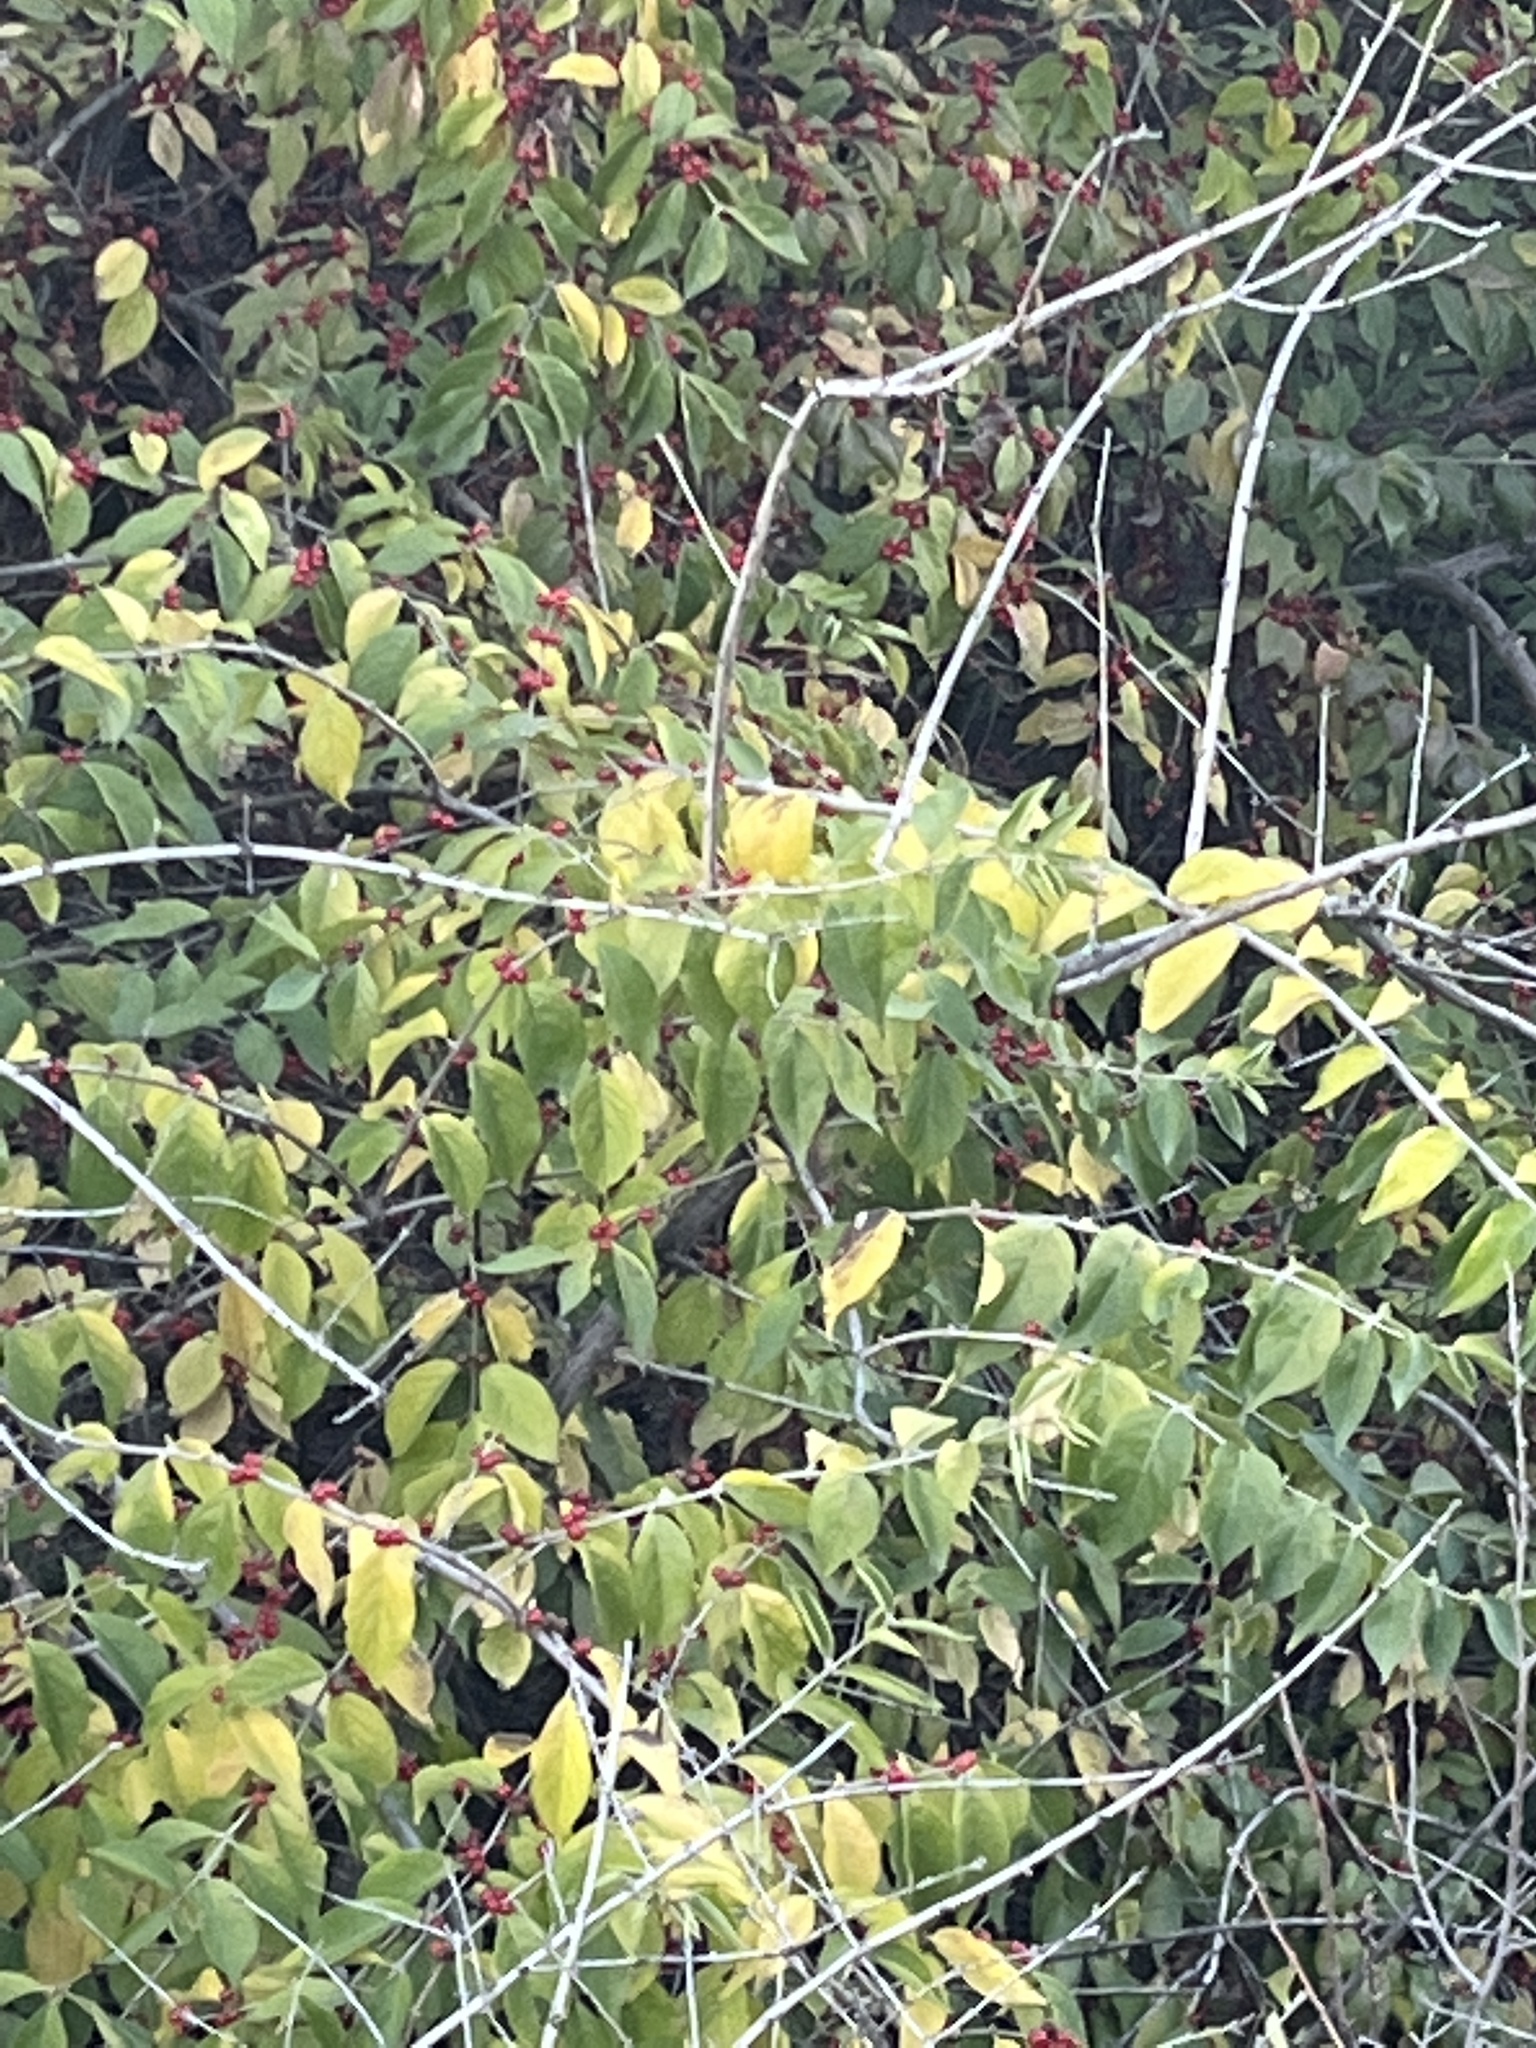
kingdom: Plantae
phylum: Tracheophyta
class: Magnoliopsida
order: Dipsacales
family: Caprifoliaceae
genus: Lonicera
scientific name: Lonicera maackii
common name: Amur honeysuckle
